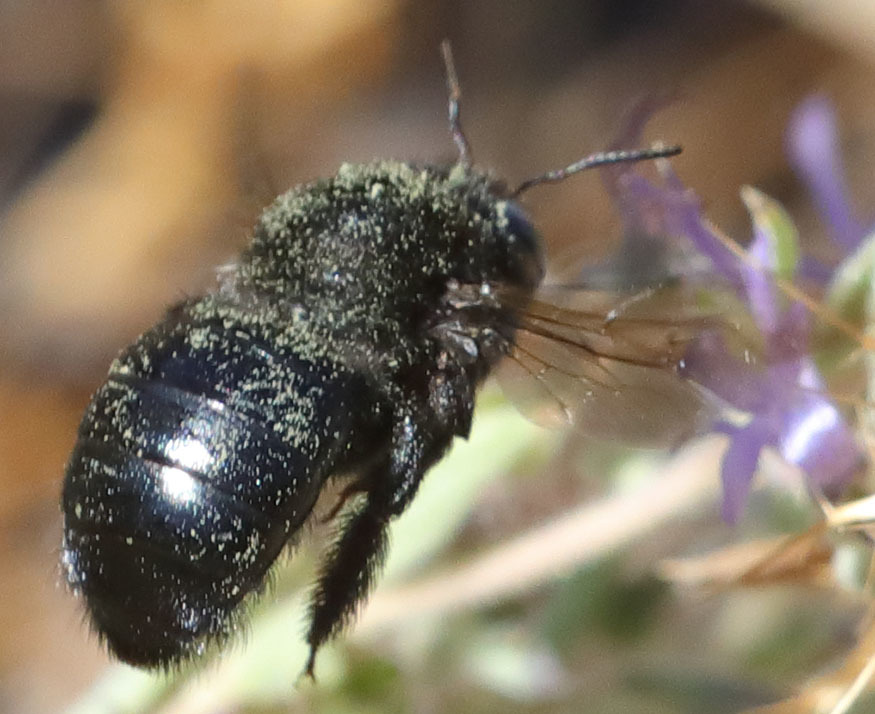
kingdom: Animalia
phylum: Arthropoda
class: Insecta
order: Hymenoptera
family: Apidae
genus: Xylocopa
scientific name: Xylocopa tabaniformis
